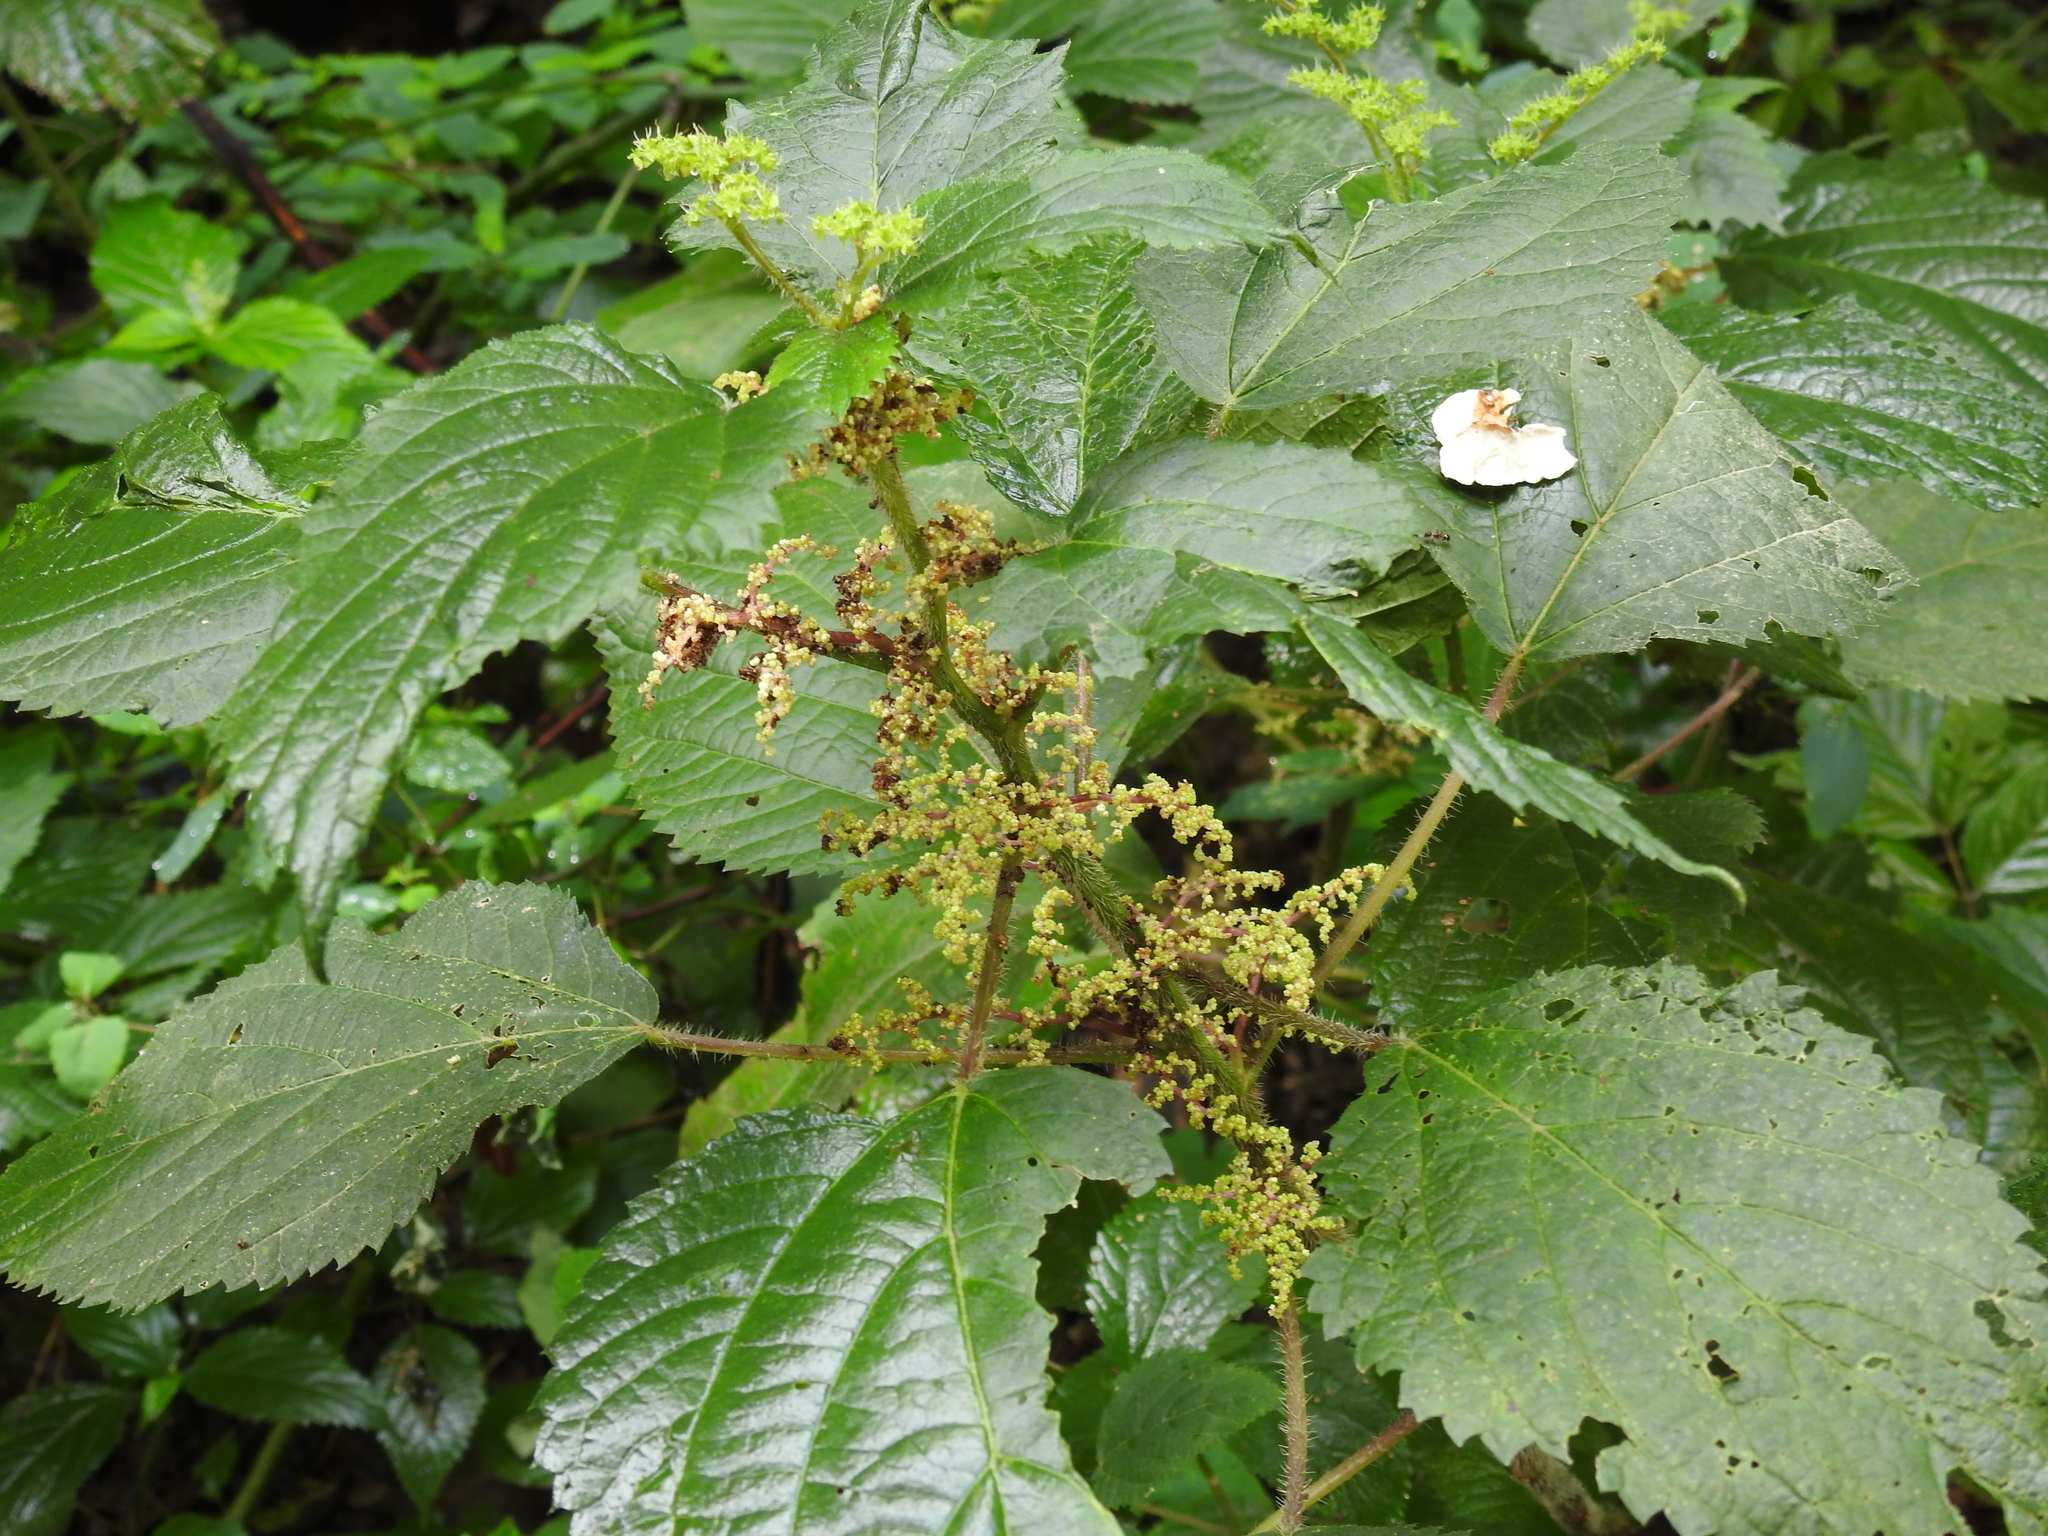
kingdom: Plantae
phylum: Tracheophyta
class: Magnoliopsida
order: Rosales
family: Urticaceae
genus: Laportea
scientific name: Laportea canadensis
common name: Canada nettle
